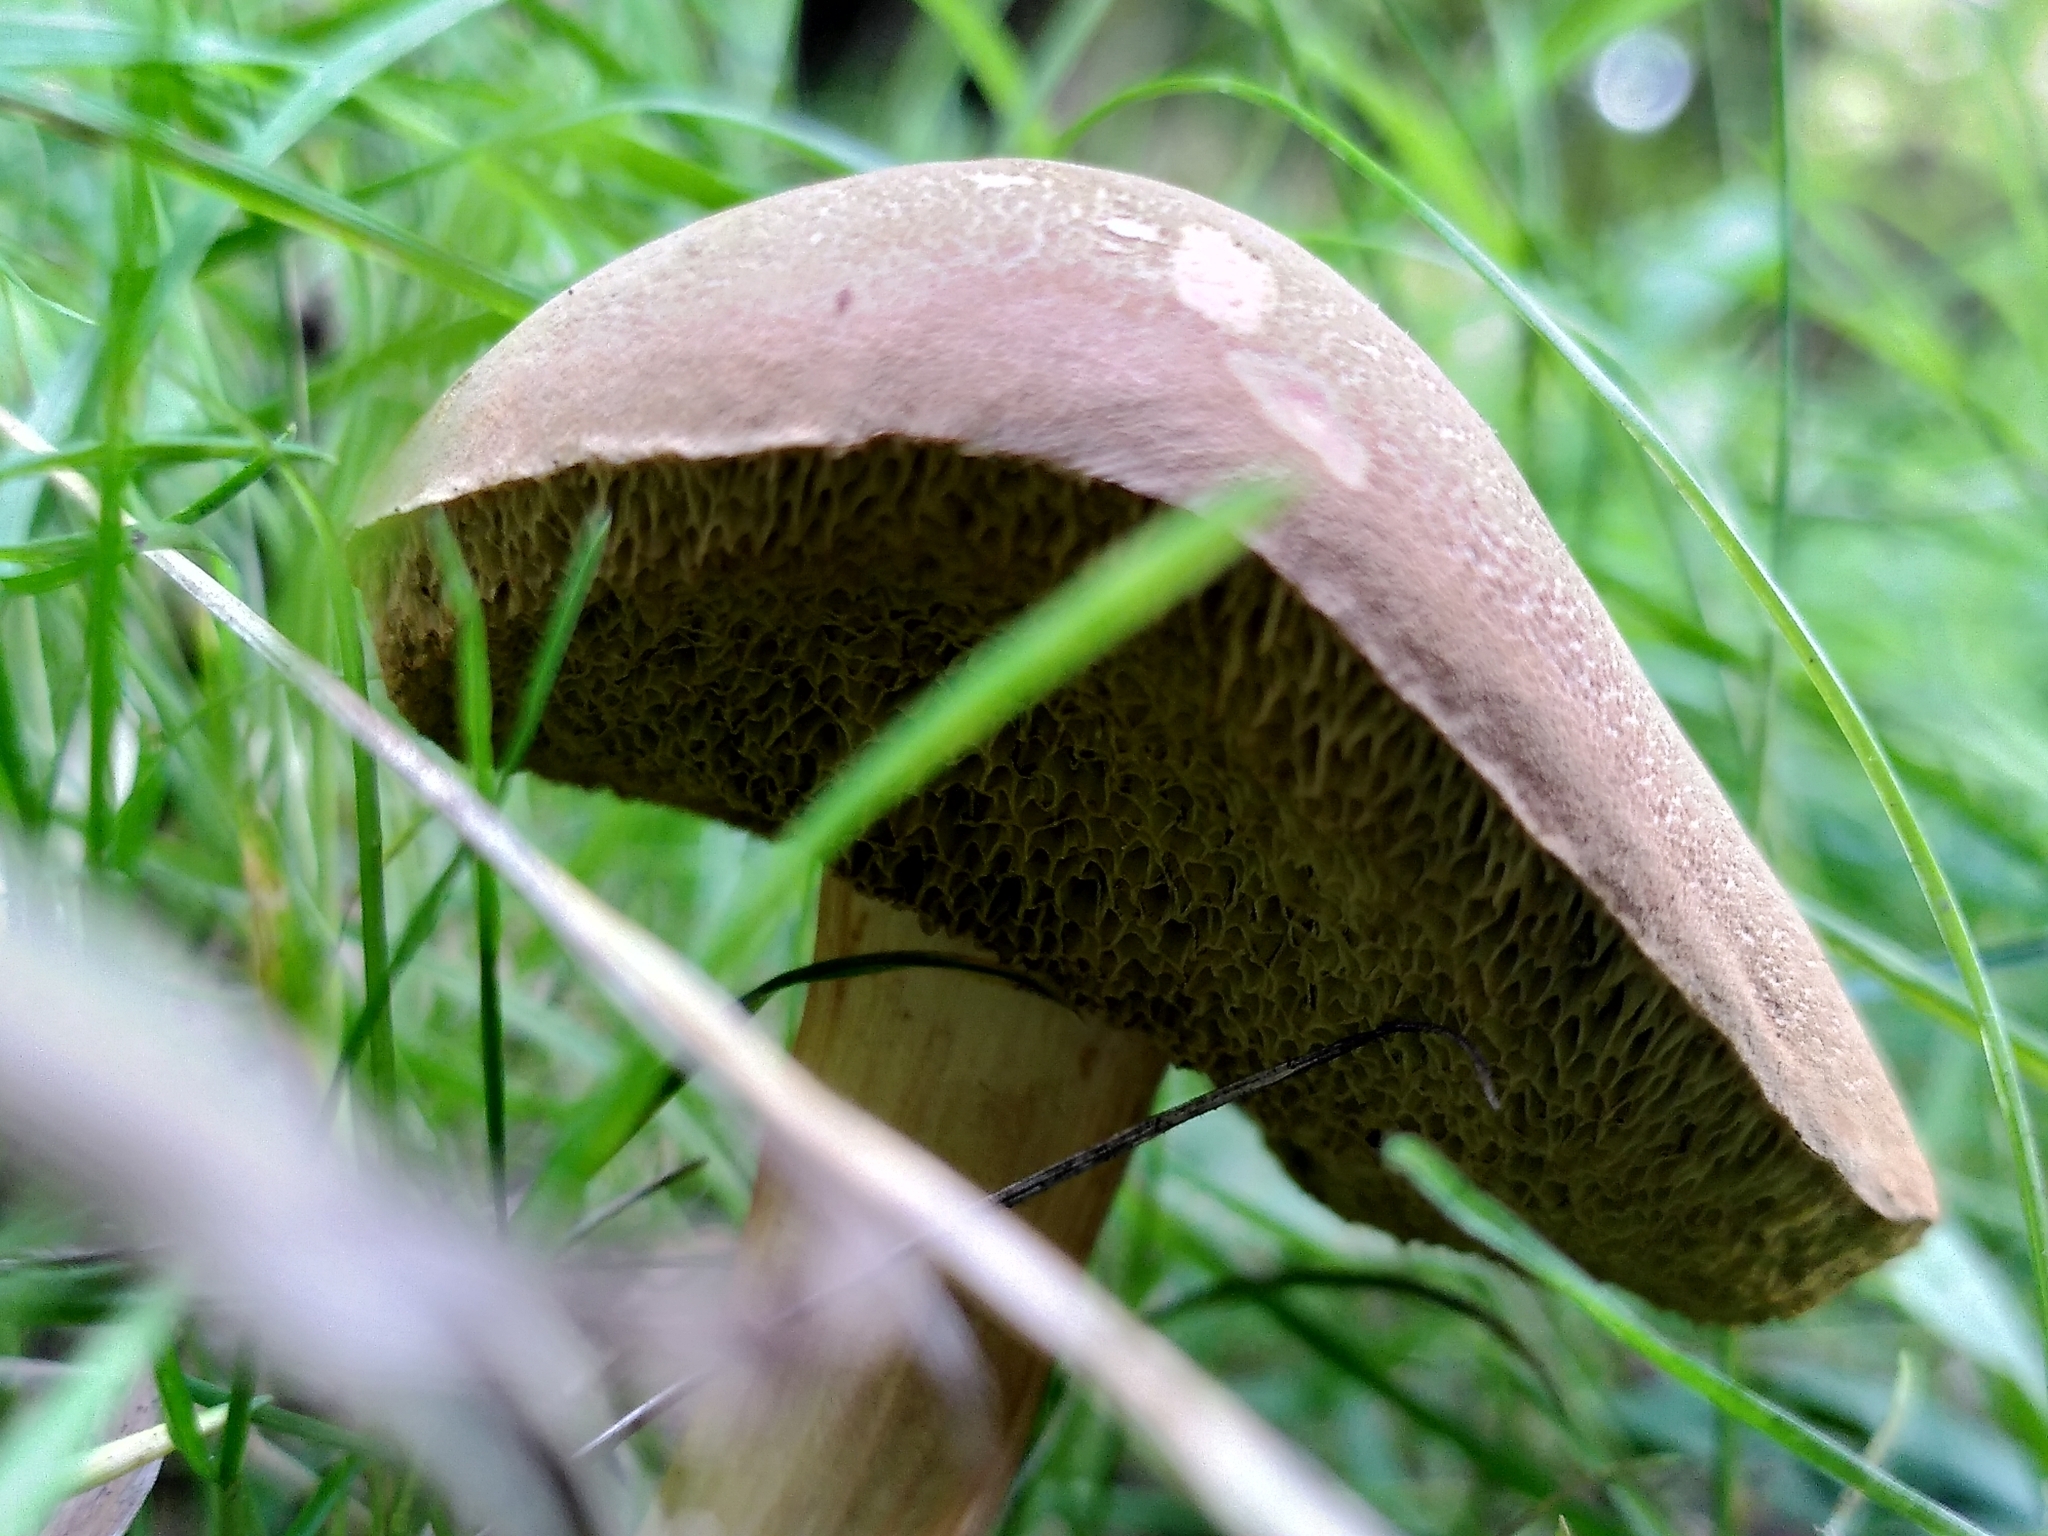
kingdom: Fungi
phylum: Basidiomycota
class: Agaricomycetes
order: Boletales
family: Boletaceae
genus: Xerocomellus
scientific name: Xerocomellus chrysenteron
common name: Red-cracking bolete
